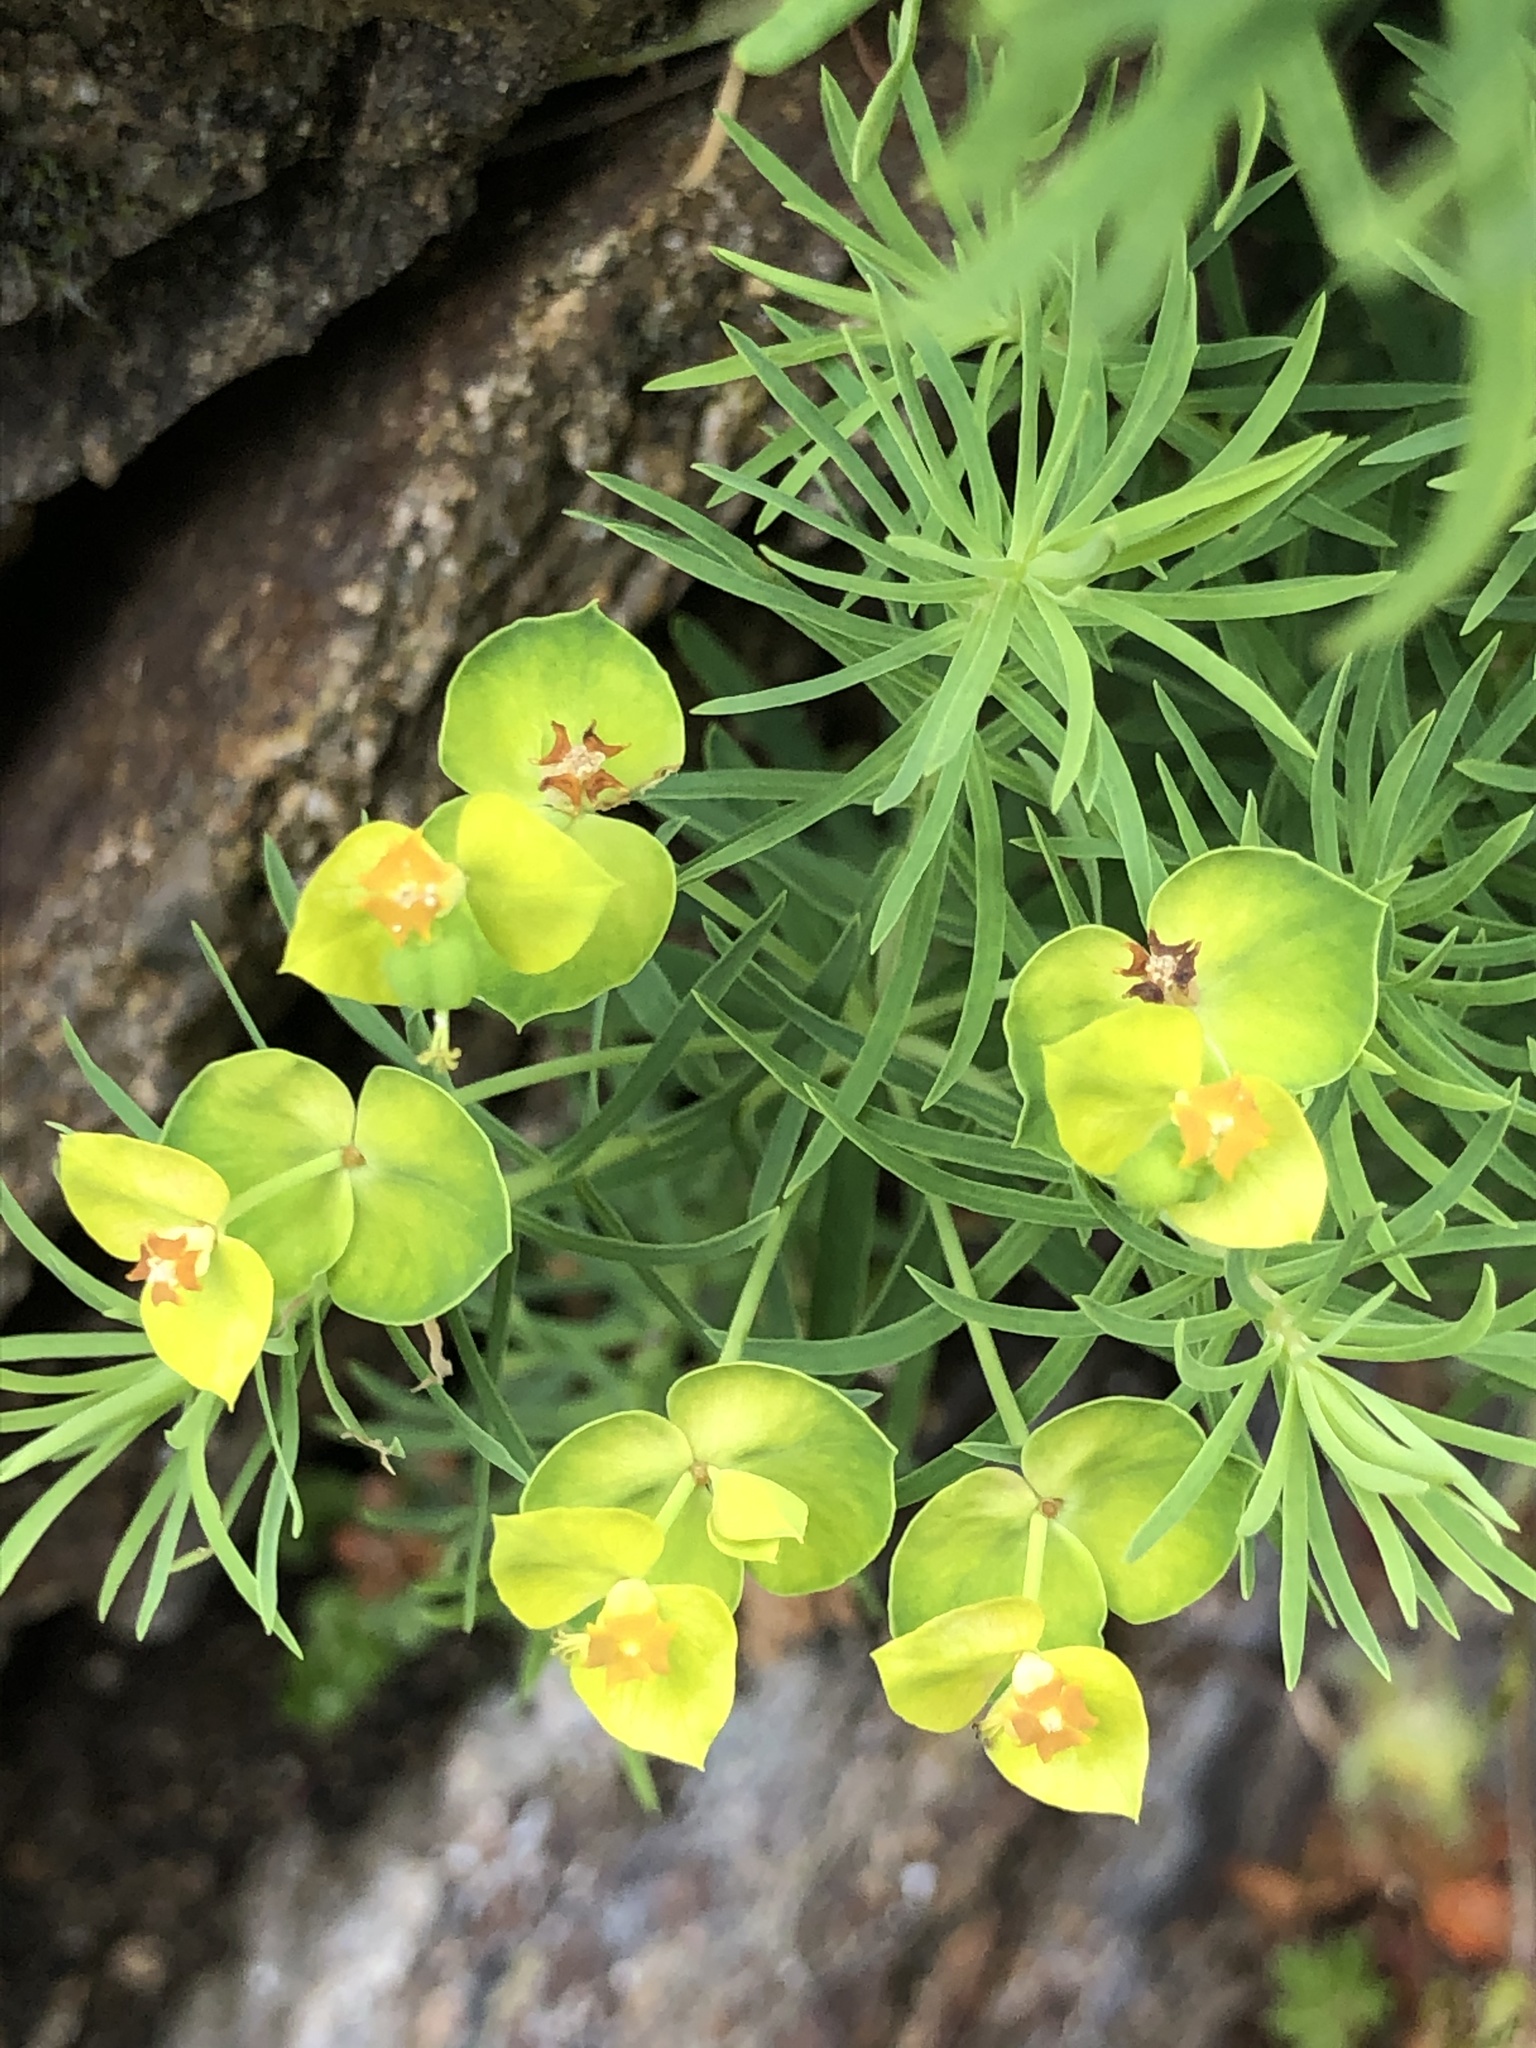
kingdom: Plantae
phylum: Tracheophyta
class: Magnoliopsida
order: Malpighiales
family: Euphorbiaceae
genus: Euphorbia
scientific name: Euphorbia cyparissias
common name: Cypress spurge
